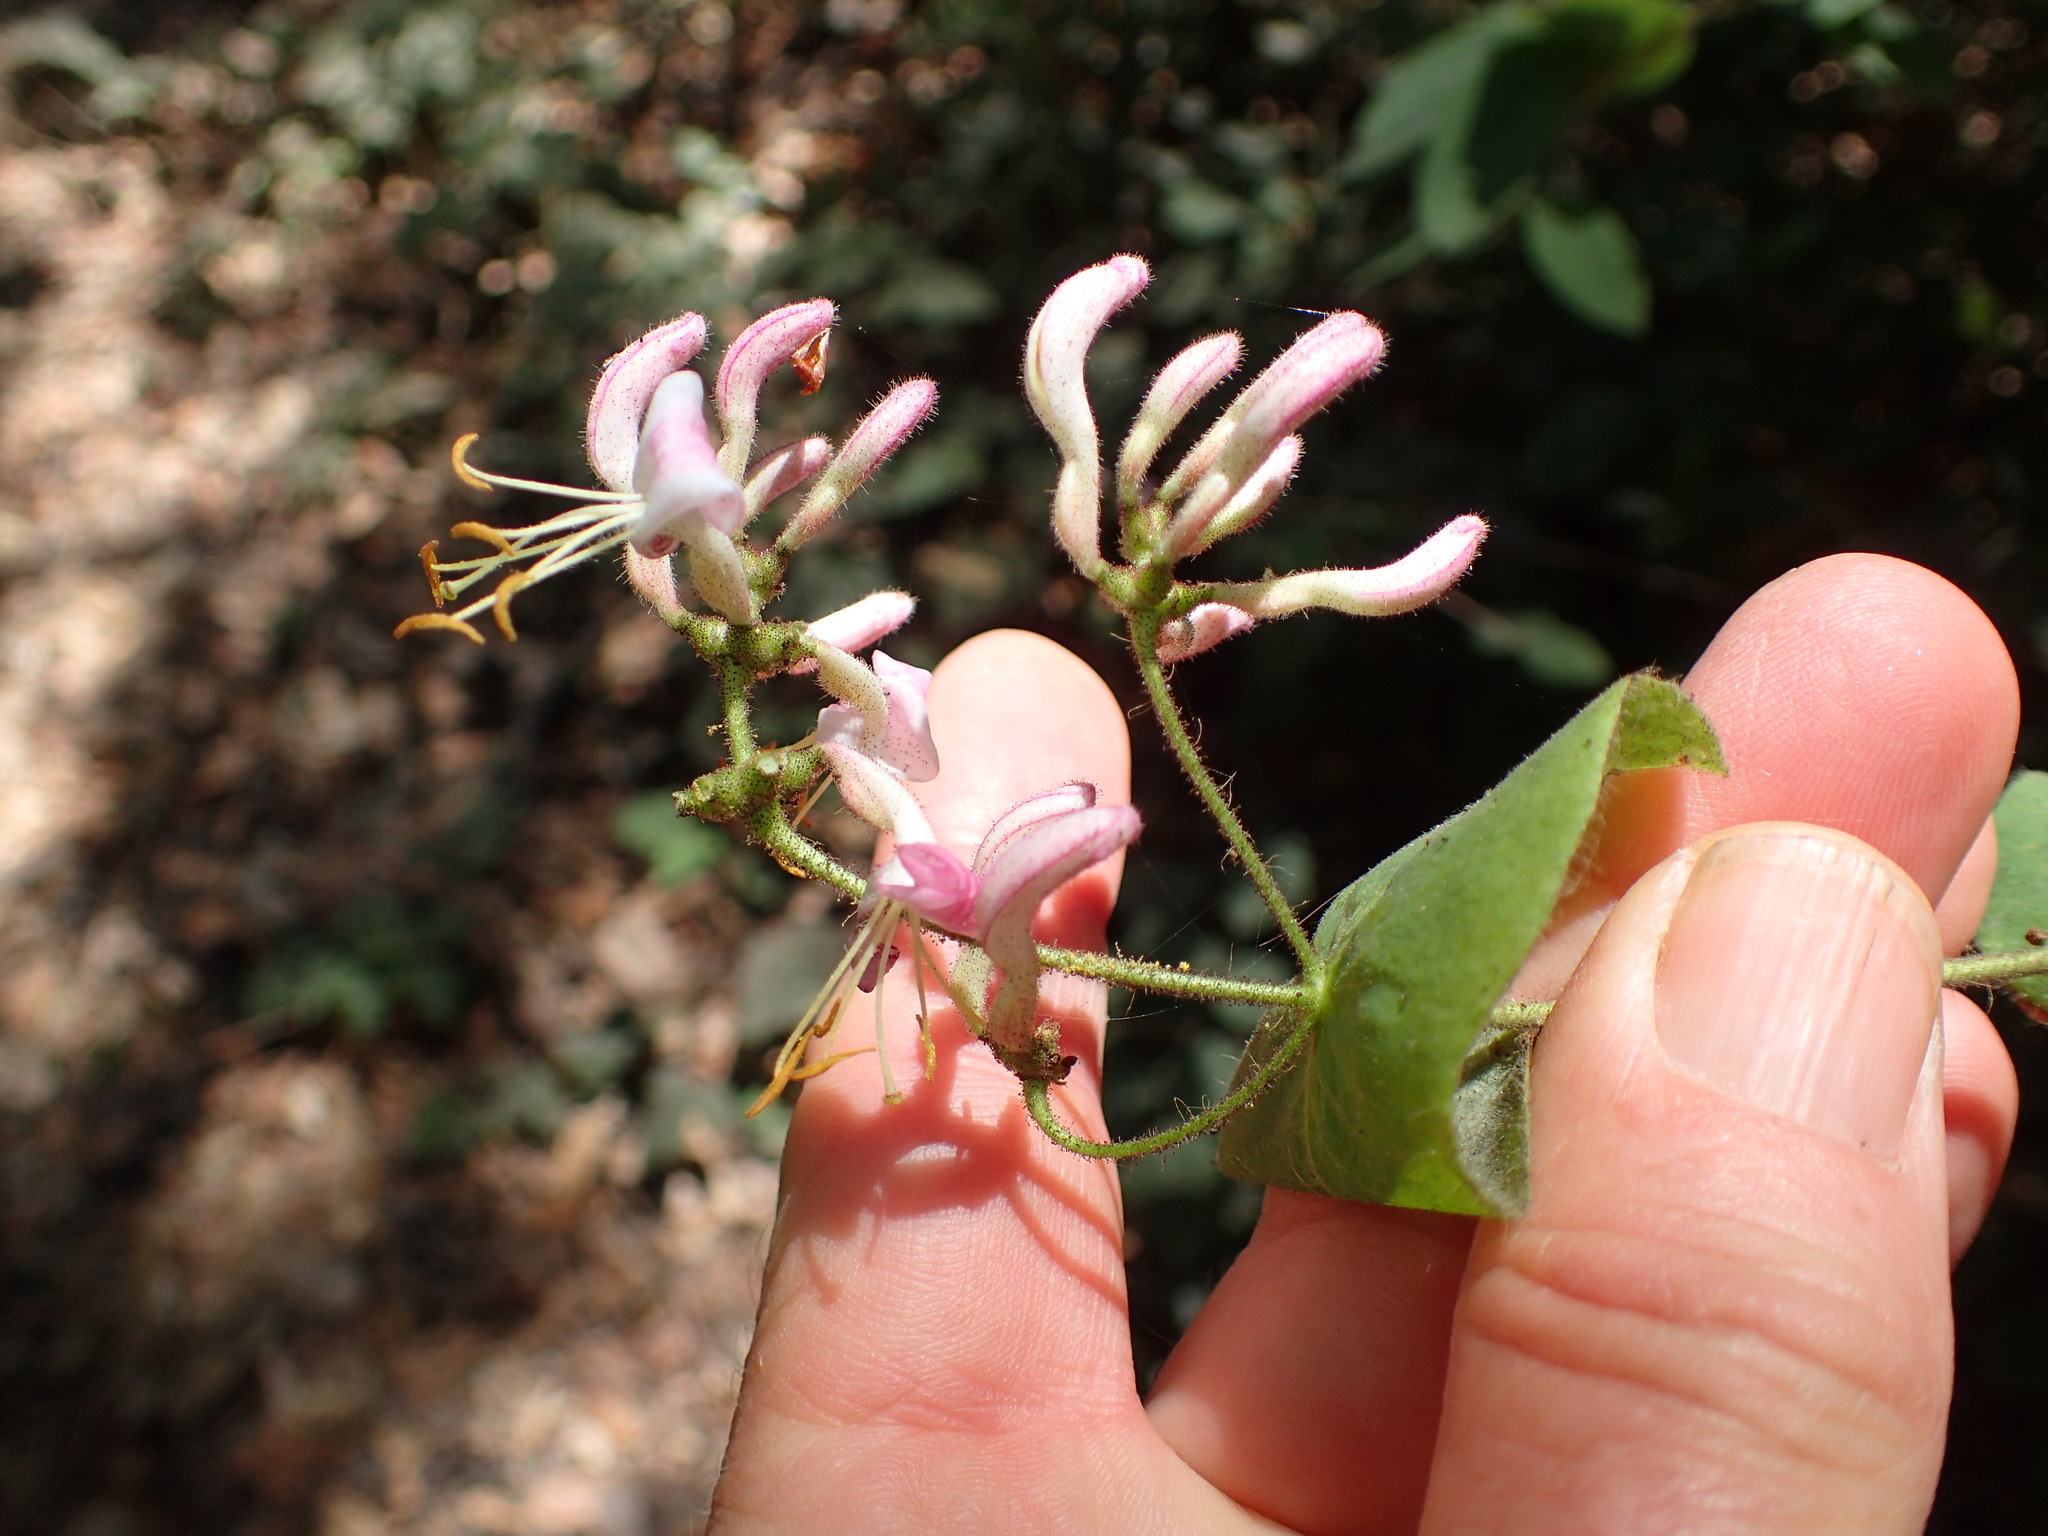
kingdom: Plantae
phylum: Tracheophyta
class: Magnoliopsida
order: Dipsacales
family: Caprifoliaceae
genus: Lonicera
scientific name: Lonicera hispidula
